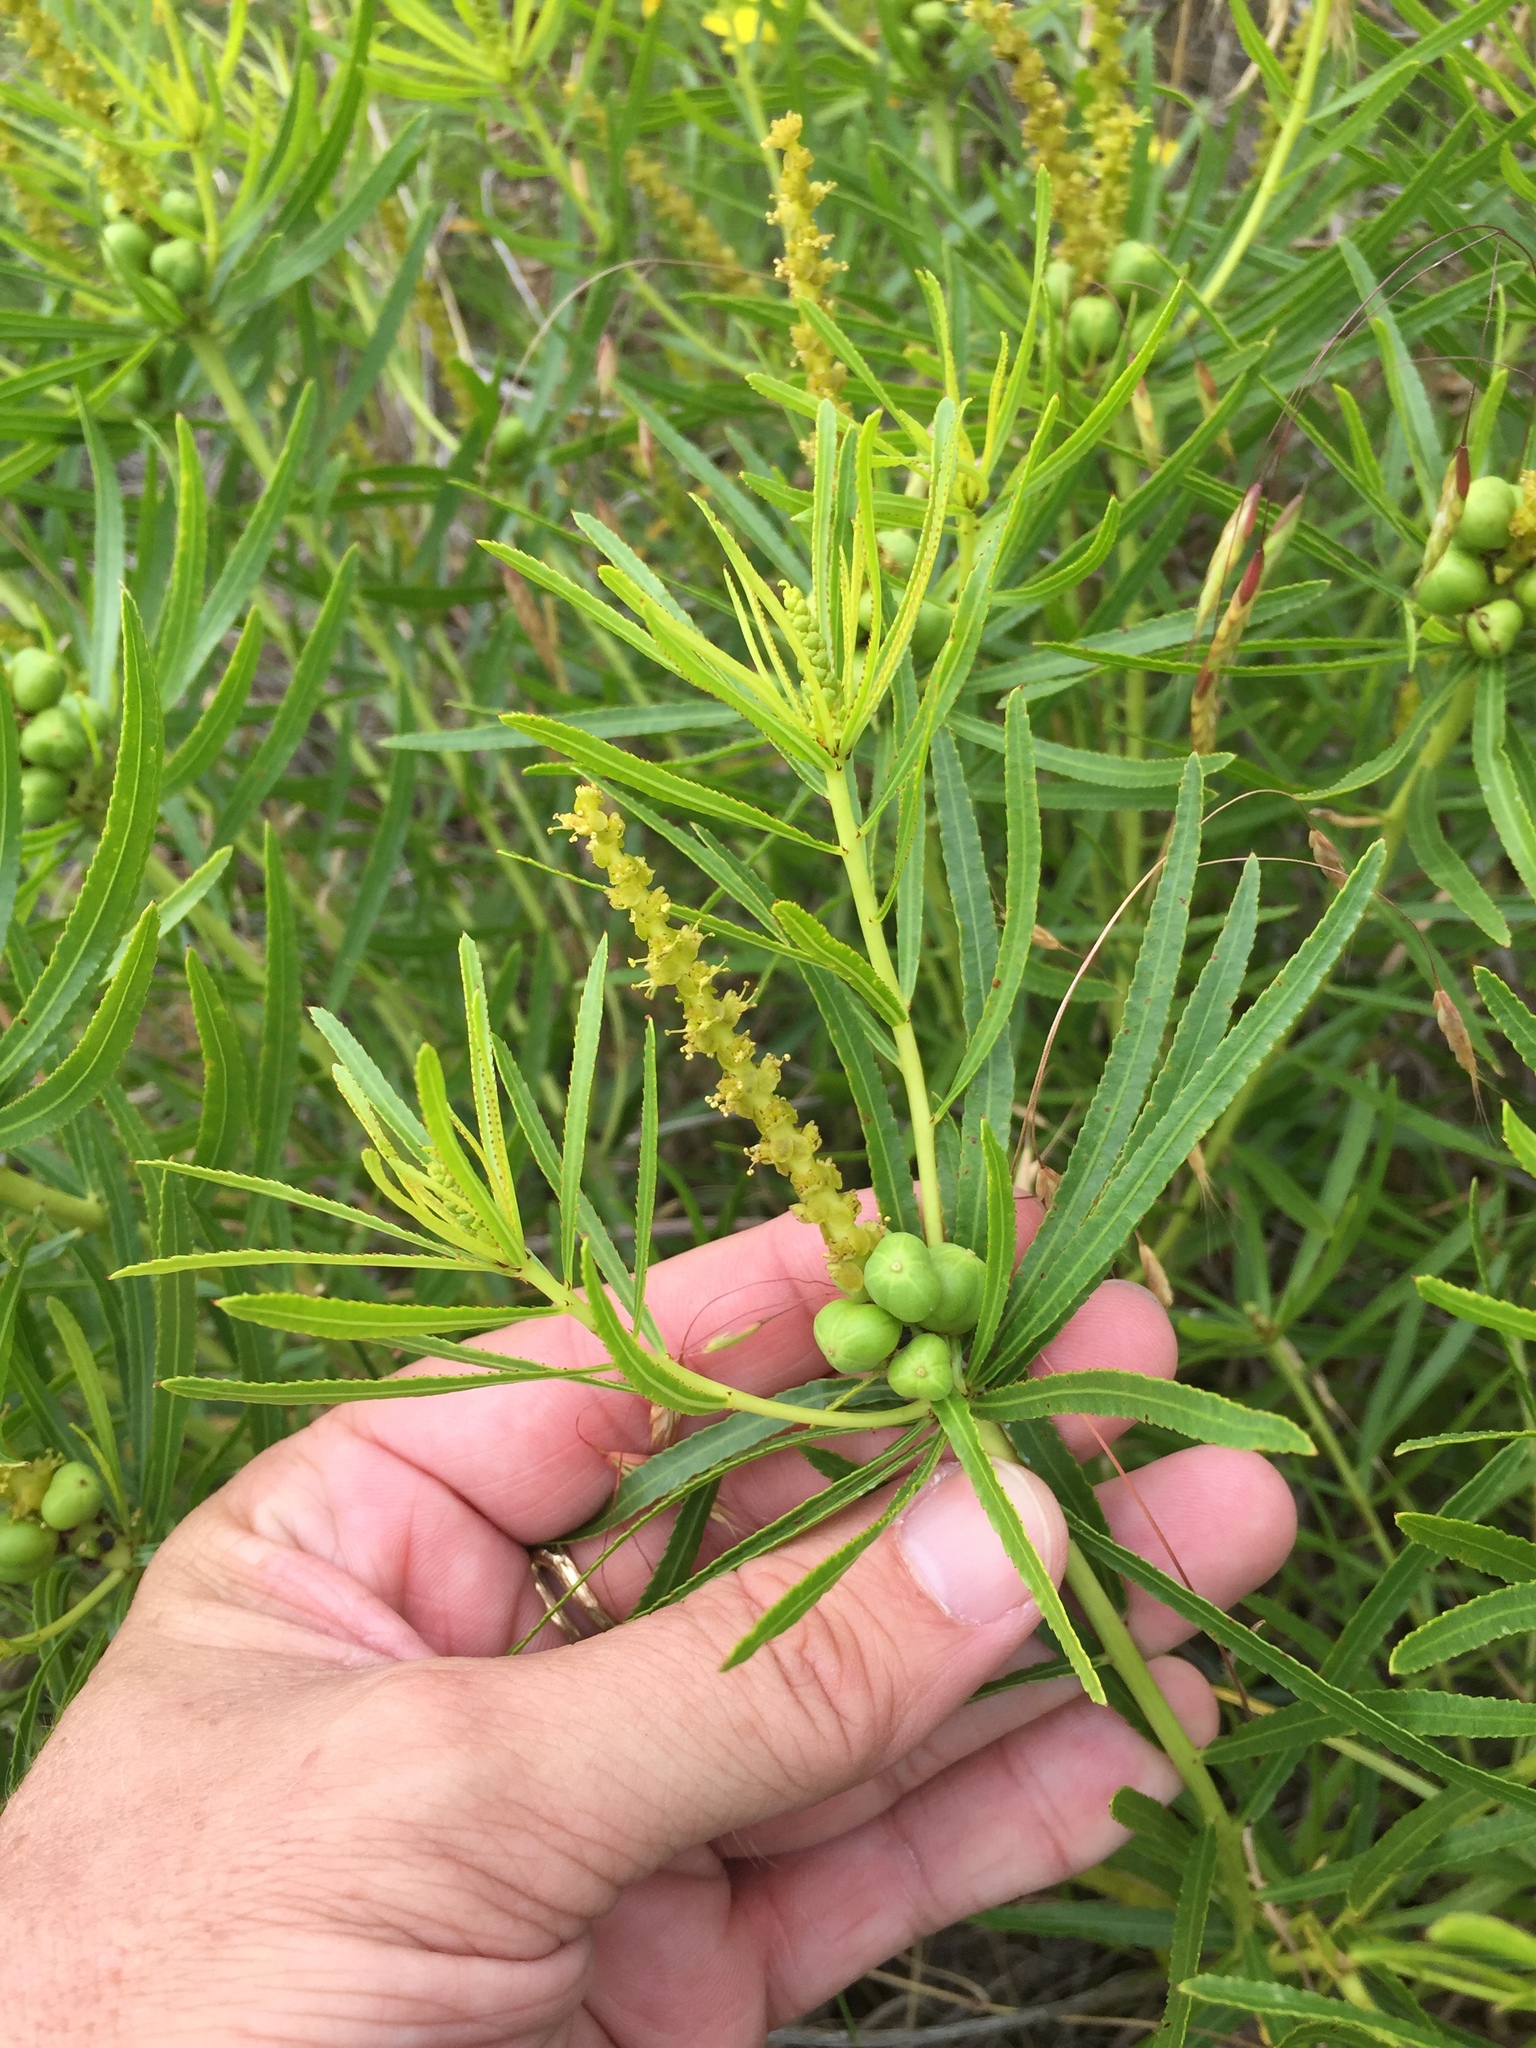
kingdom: Plantae
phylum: Tracheophyta
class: Magnoliopsida
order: Malpighiales
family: Euphorbiaceae
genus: Stillingia
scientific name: Stillingia texana
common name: Texas stillingia
